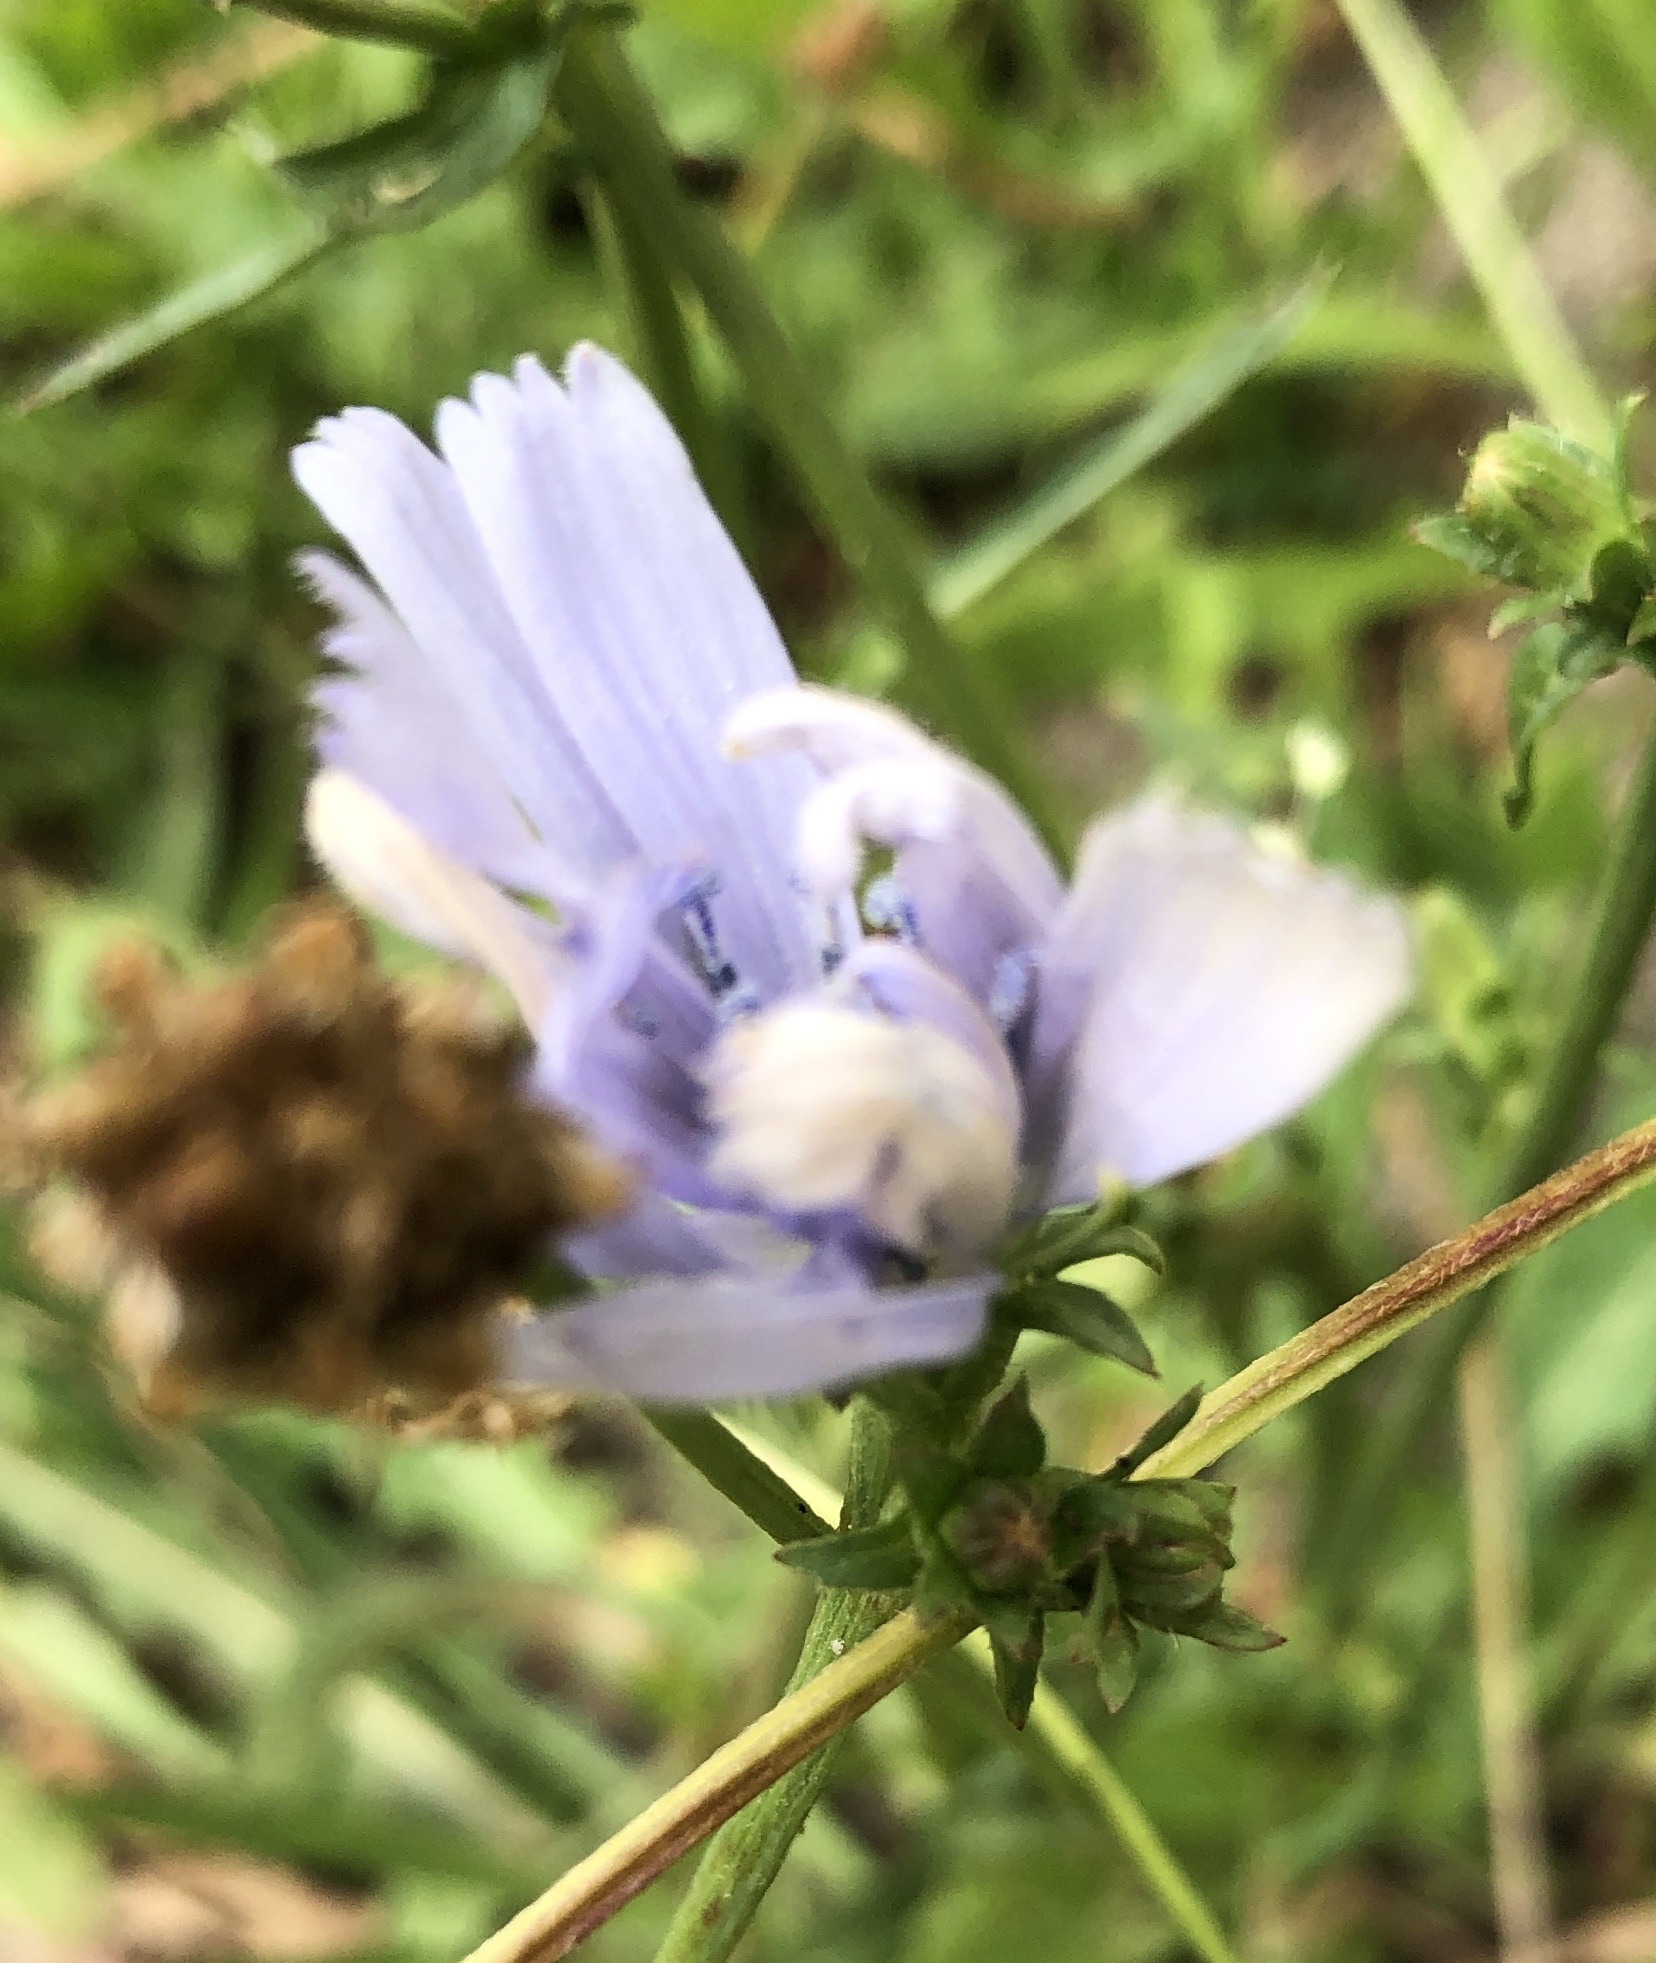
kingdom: Plantae
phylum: Tracheophyta
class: Magnoliopsida
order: Asterales
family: Asteraceae
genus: Cichorium
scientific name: Cichorium intybus
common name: Chicory
